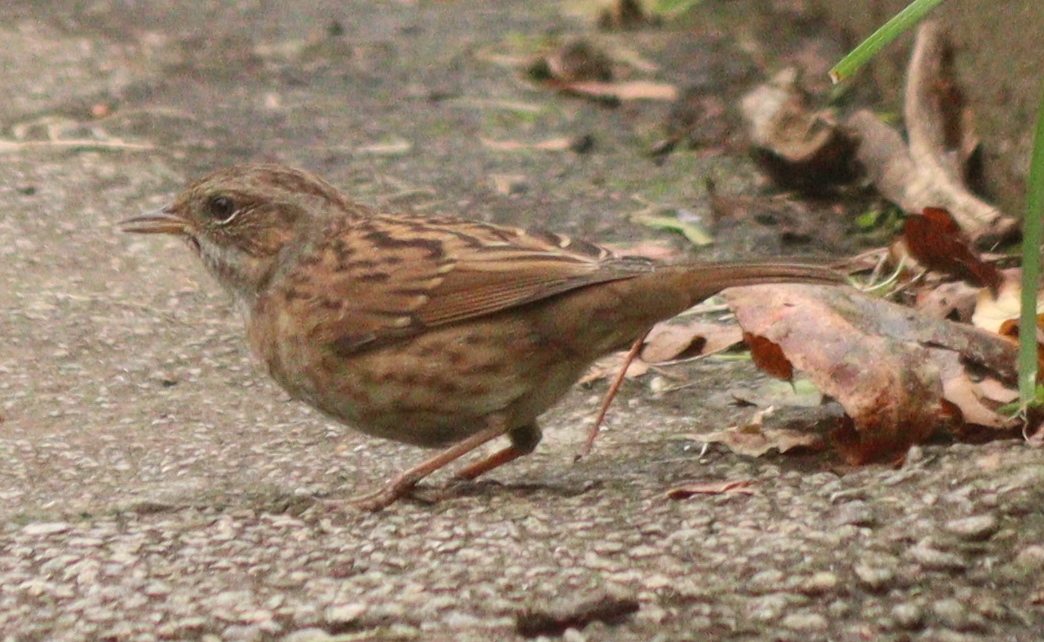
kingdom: Animalia
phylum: Chordata
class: Aves
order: Passeriformes
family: Prunellidae
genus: Prunella
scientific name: Prunella modularis
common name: Dunnock
